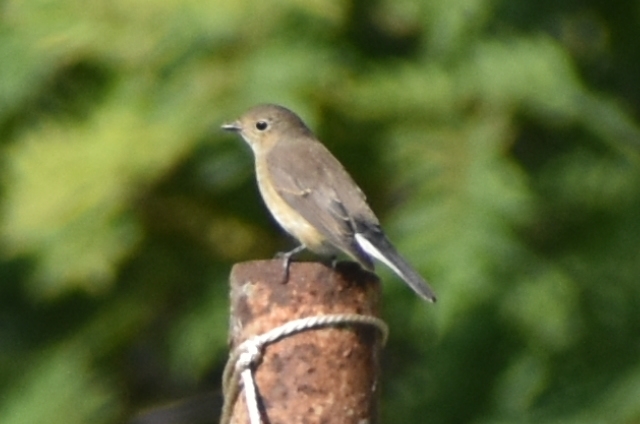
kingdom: Animalia
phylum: Chordata
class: Aves
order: Passeriformes
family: Muscicapidae
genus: Ficedula
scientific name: Ficedula albicilla
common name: Taiga flycatcher
